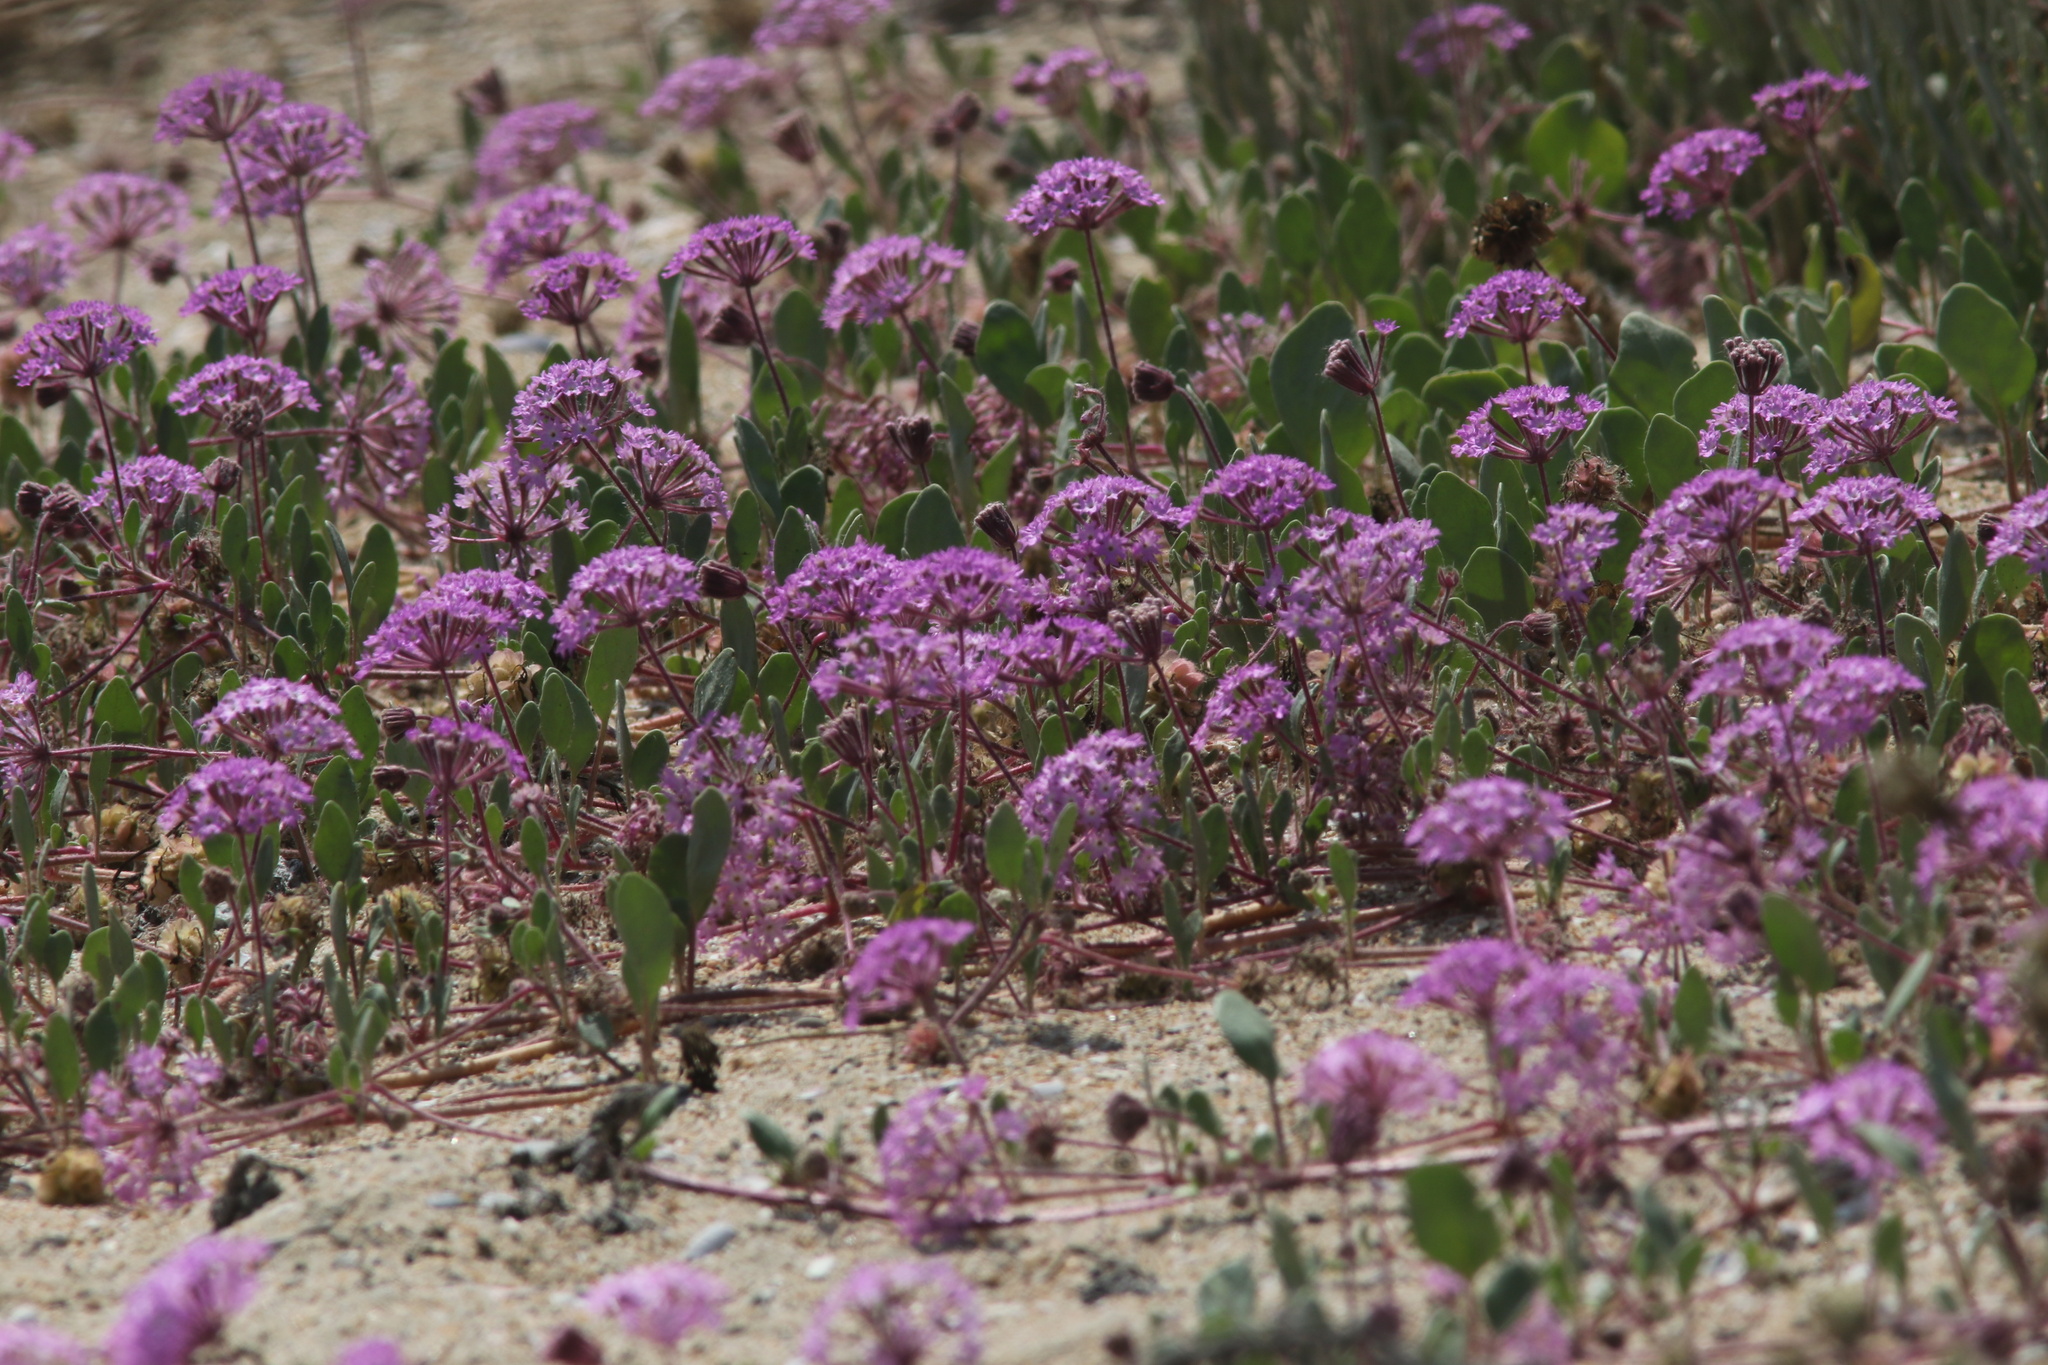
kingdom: Plantae
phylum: Tracheophyta
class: Magnoliopsida
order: Caryophyllales
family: Nyctaginaceae
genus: Abronia
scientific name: Abronia umbellata
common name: Sand-verbena
